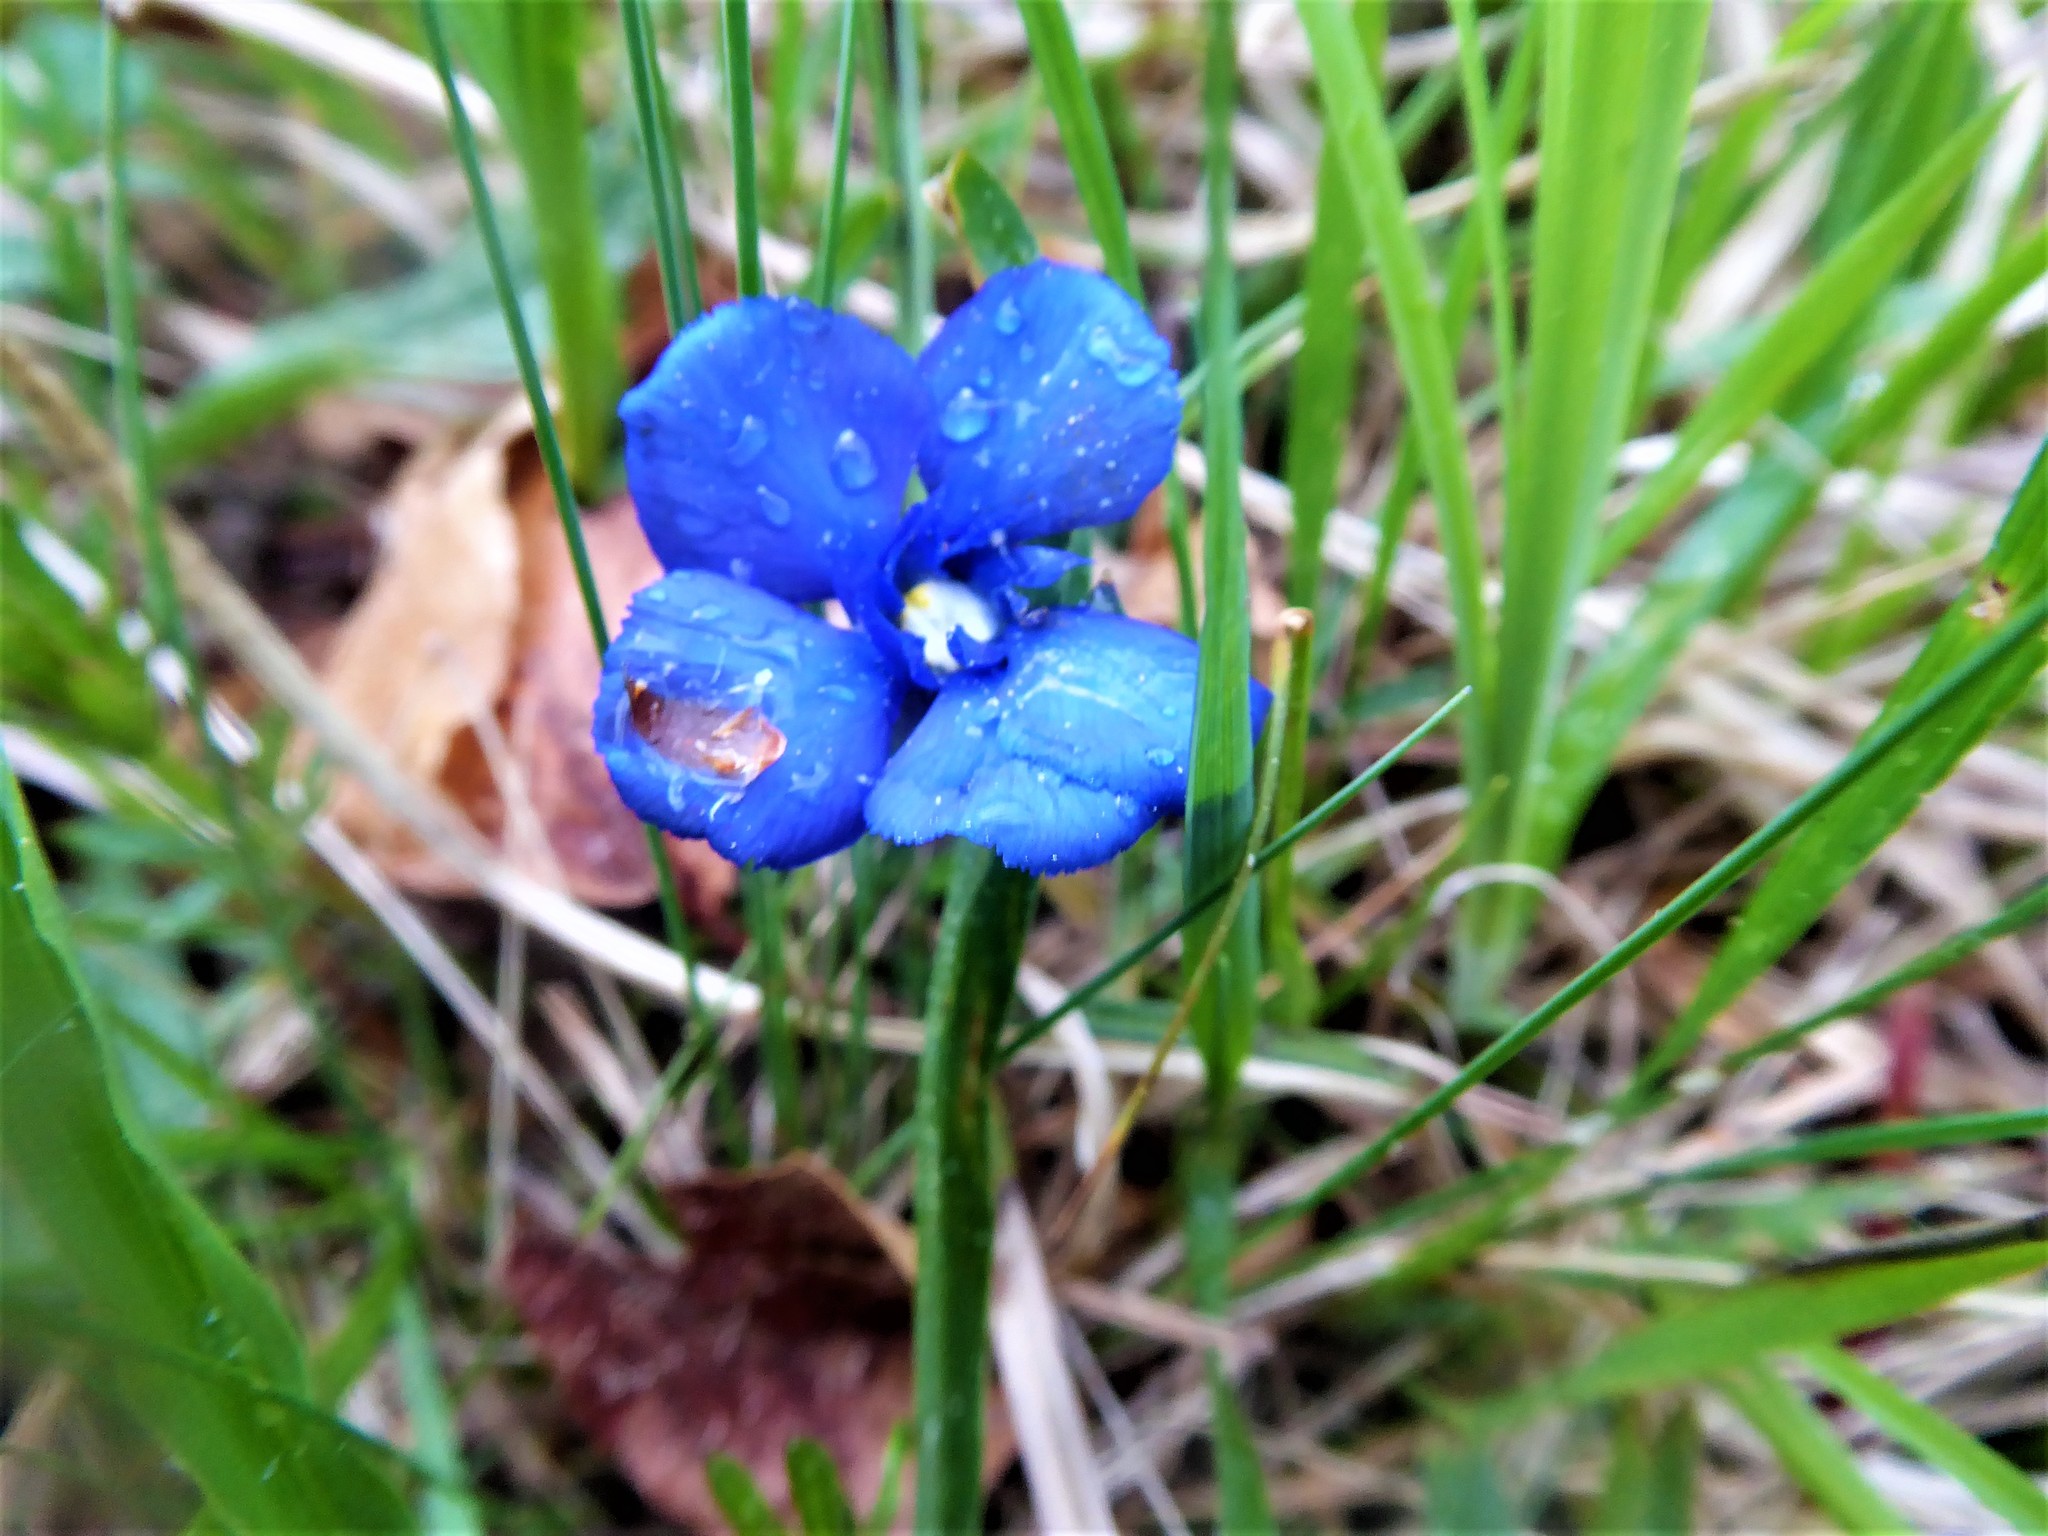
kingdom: Plantae
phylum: Tracheophyta
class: Magnoliopsida
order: Gentianales
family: Gentianaceae
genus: Gentiana
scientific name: Gentiana verna
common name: Spring gentian
